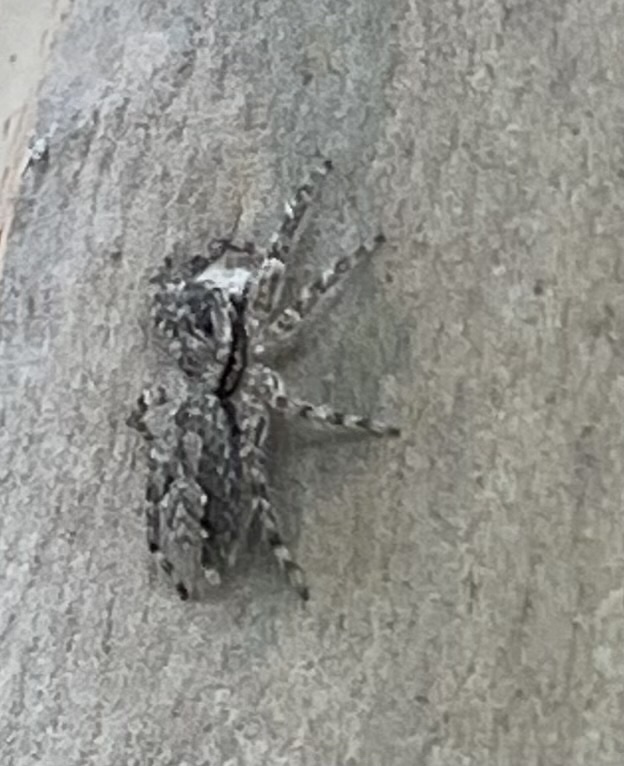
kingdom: Animalia
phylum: Arthropoda
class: Arachnida
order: Araneae
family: Salticidae
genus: Platycryptus
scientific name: Platycryptus undatus
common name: Tan jumping spider
